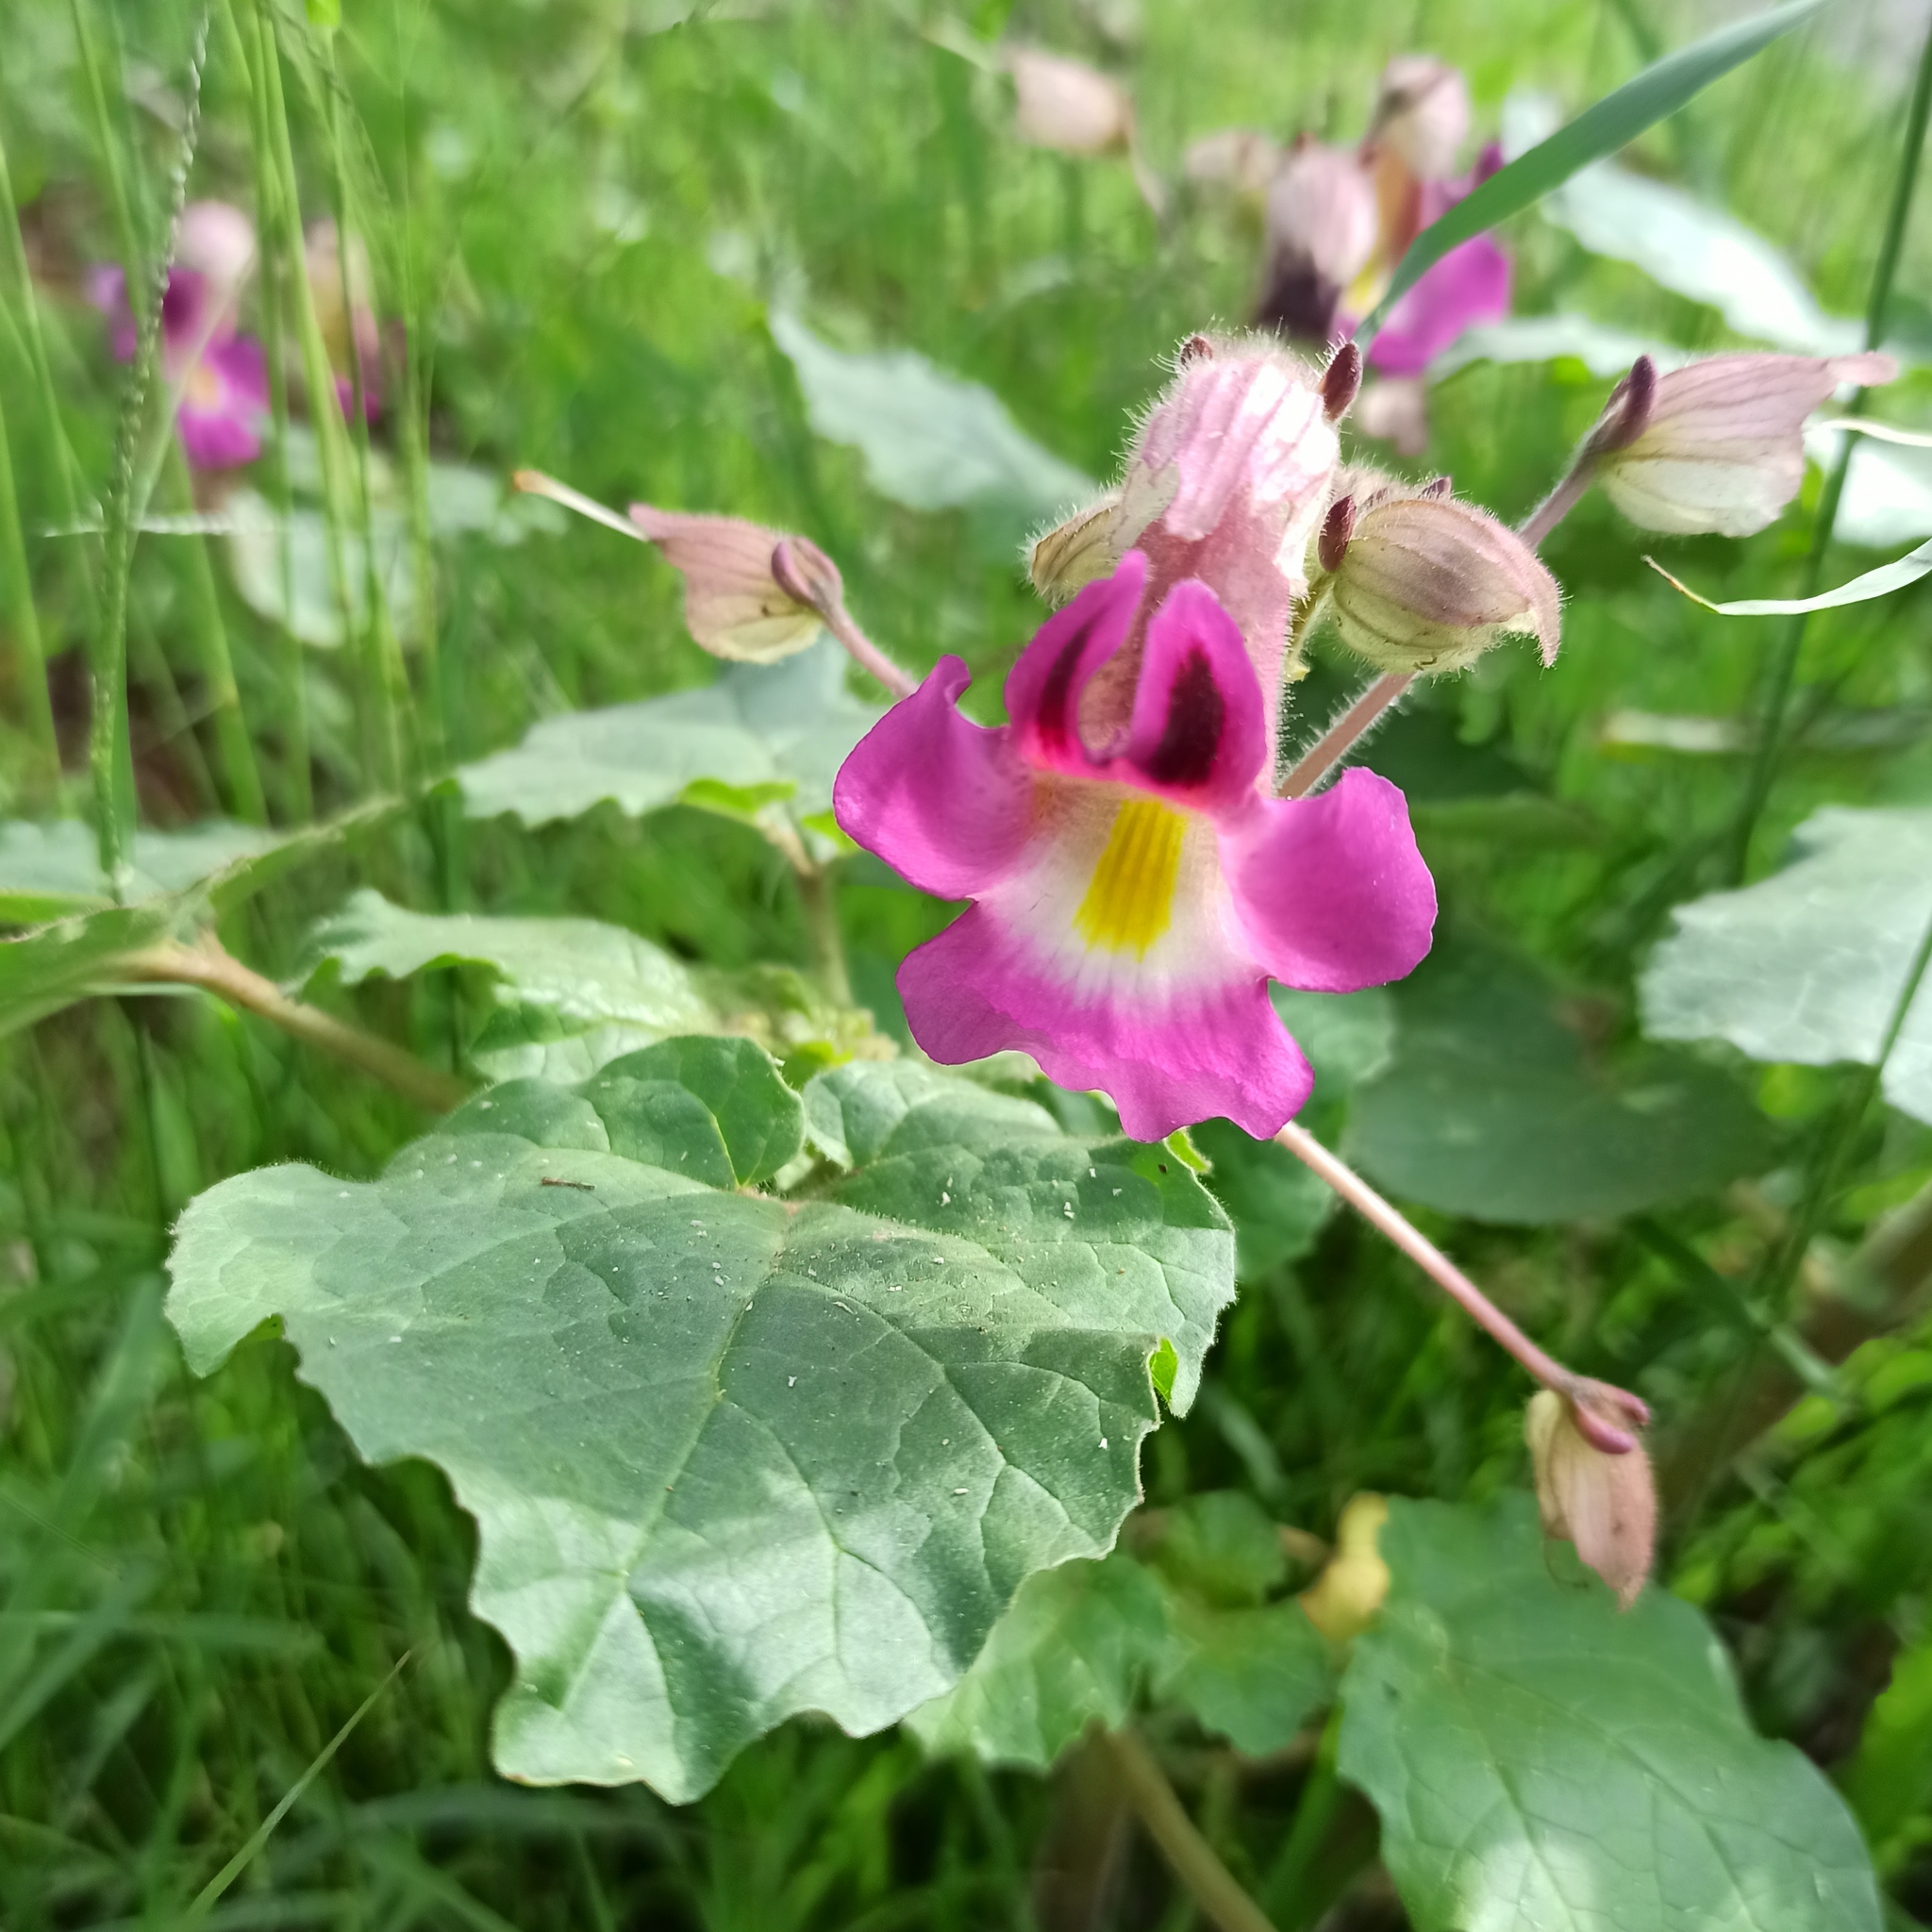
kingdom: Plantae
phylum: Tracheophyta
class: Magnoliopsida
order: Lamiales
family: Martyniaceae
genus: Proboscidea
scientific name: Proboscidea louisianica
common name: Elephant tusks
